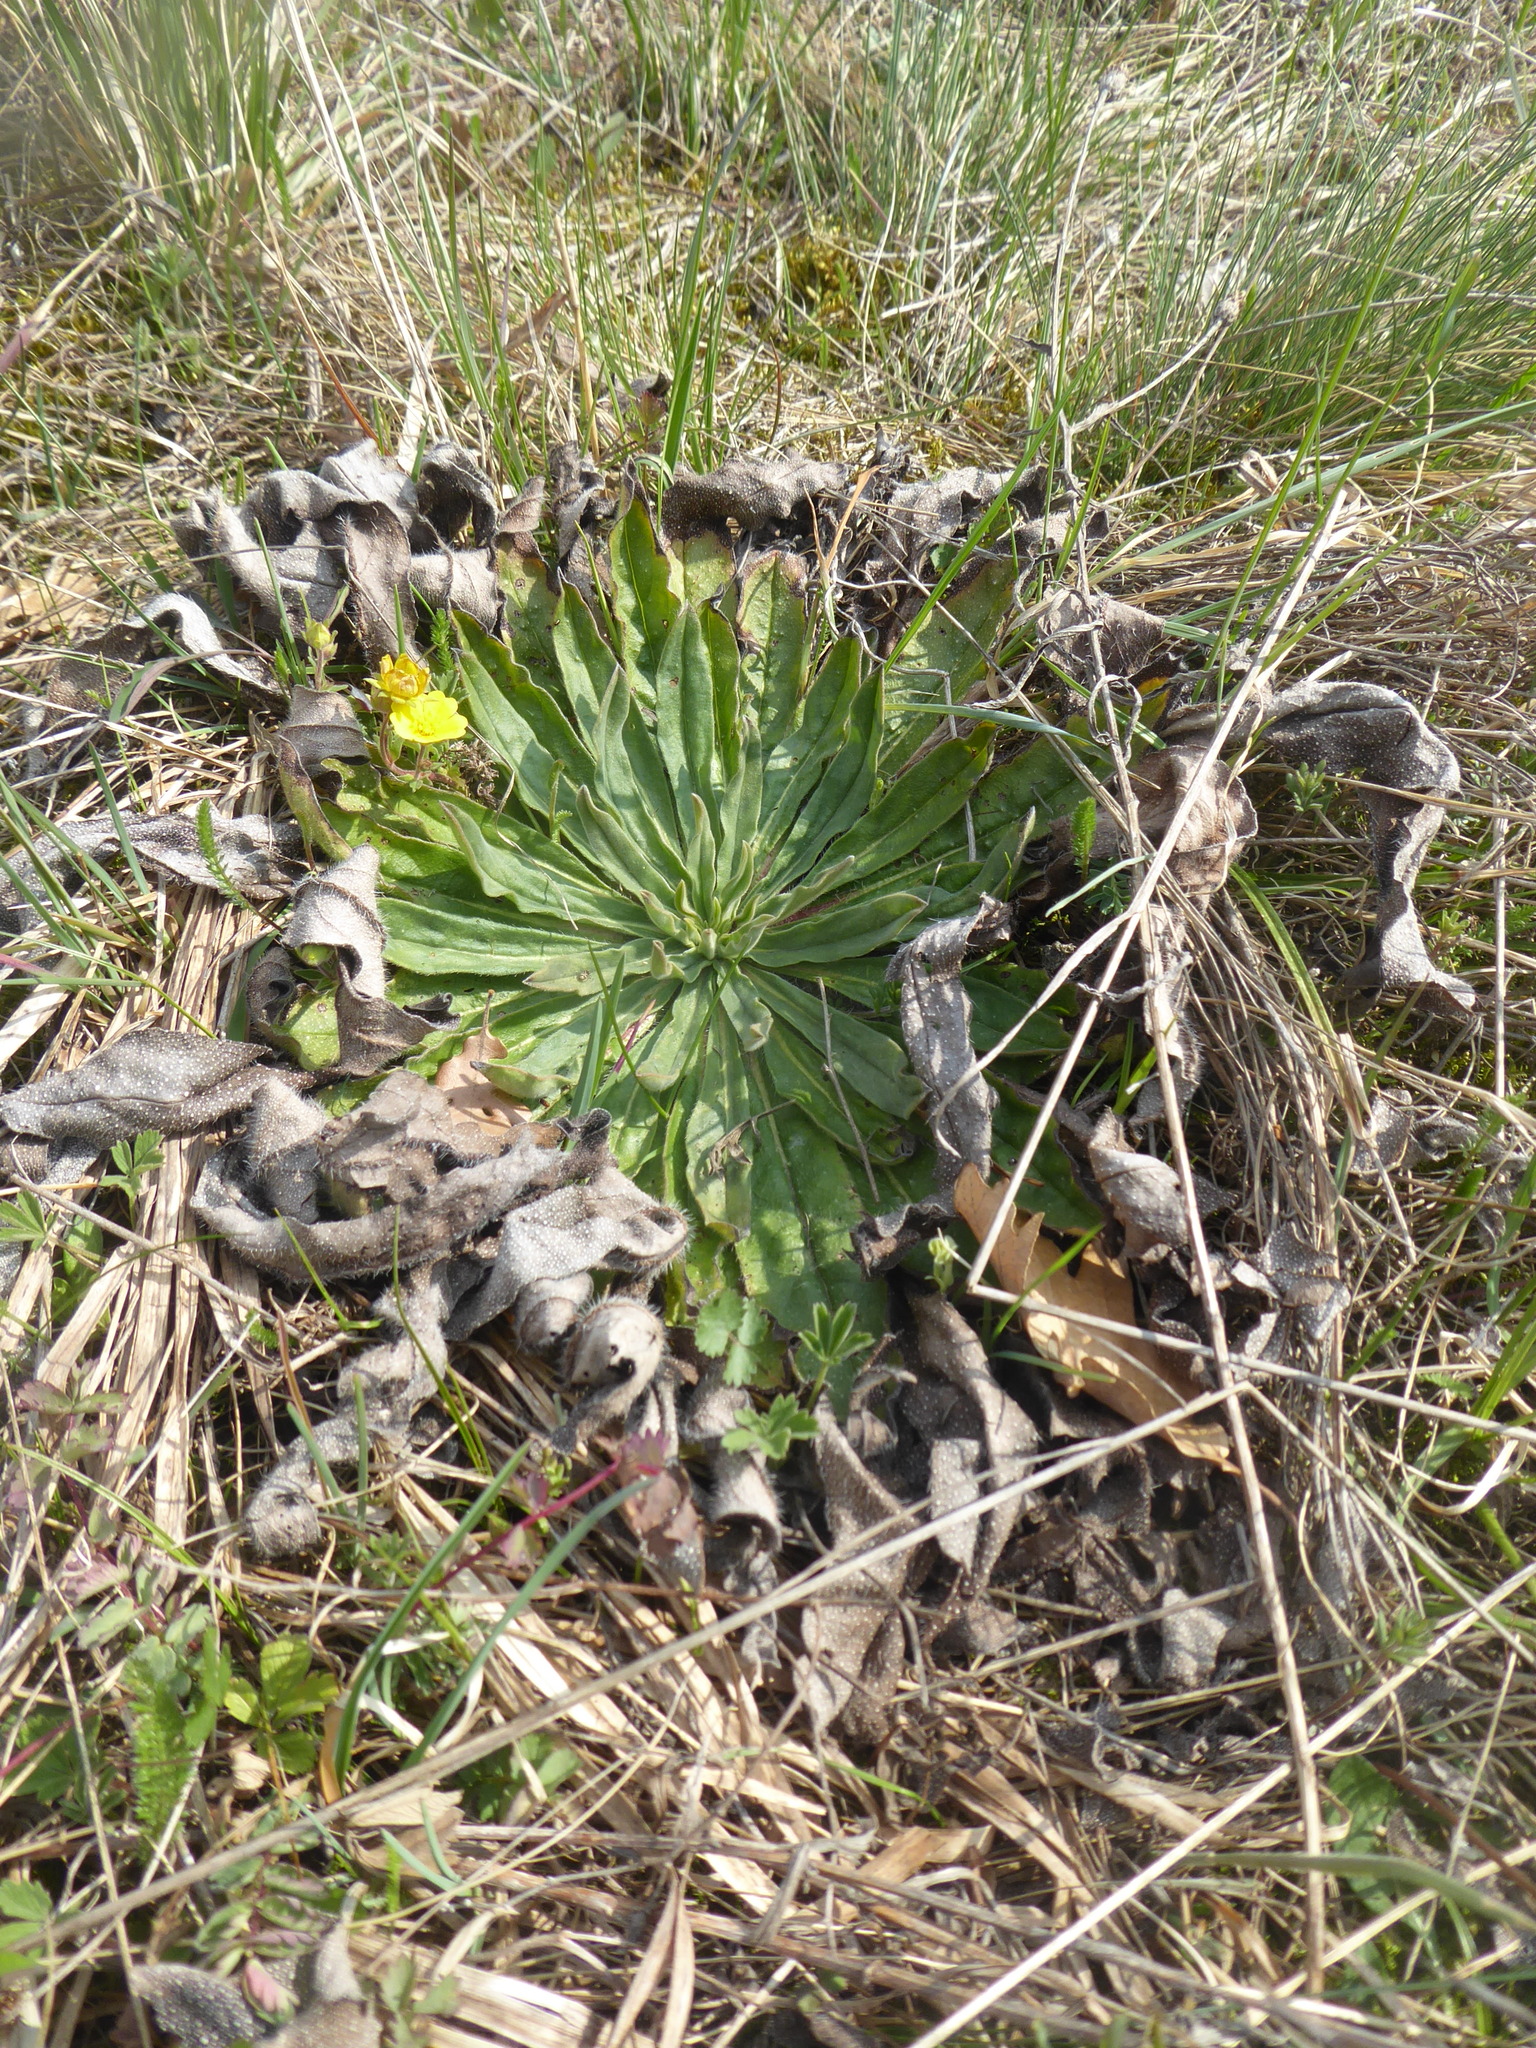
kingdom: Plantae
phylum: Tracheophyta
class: Magnoliopsida
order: Boraginales
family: Boraginaceae
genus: Echium
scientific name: Echium vulgare
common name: Common viper's bugloss
